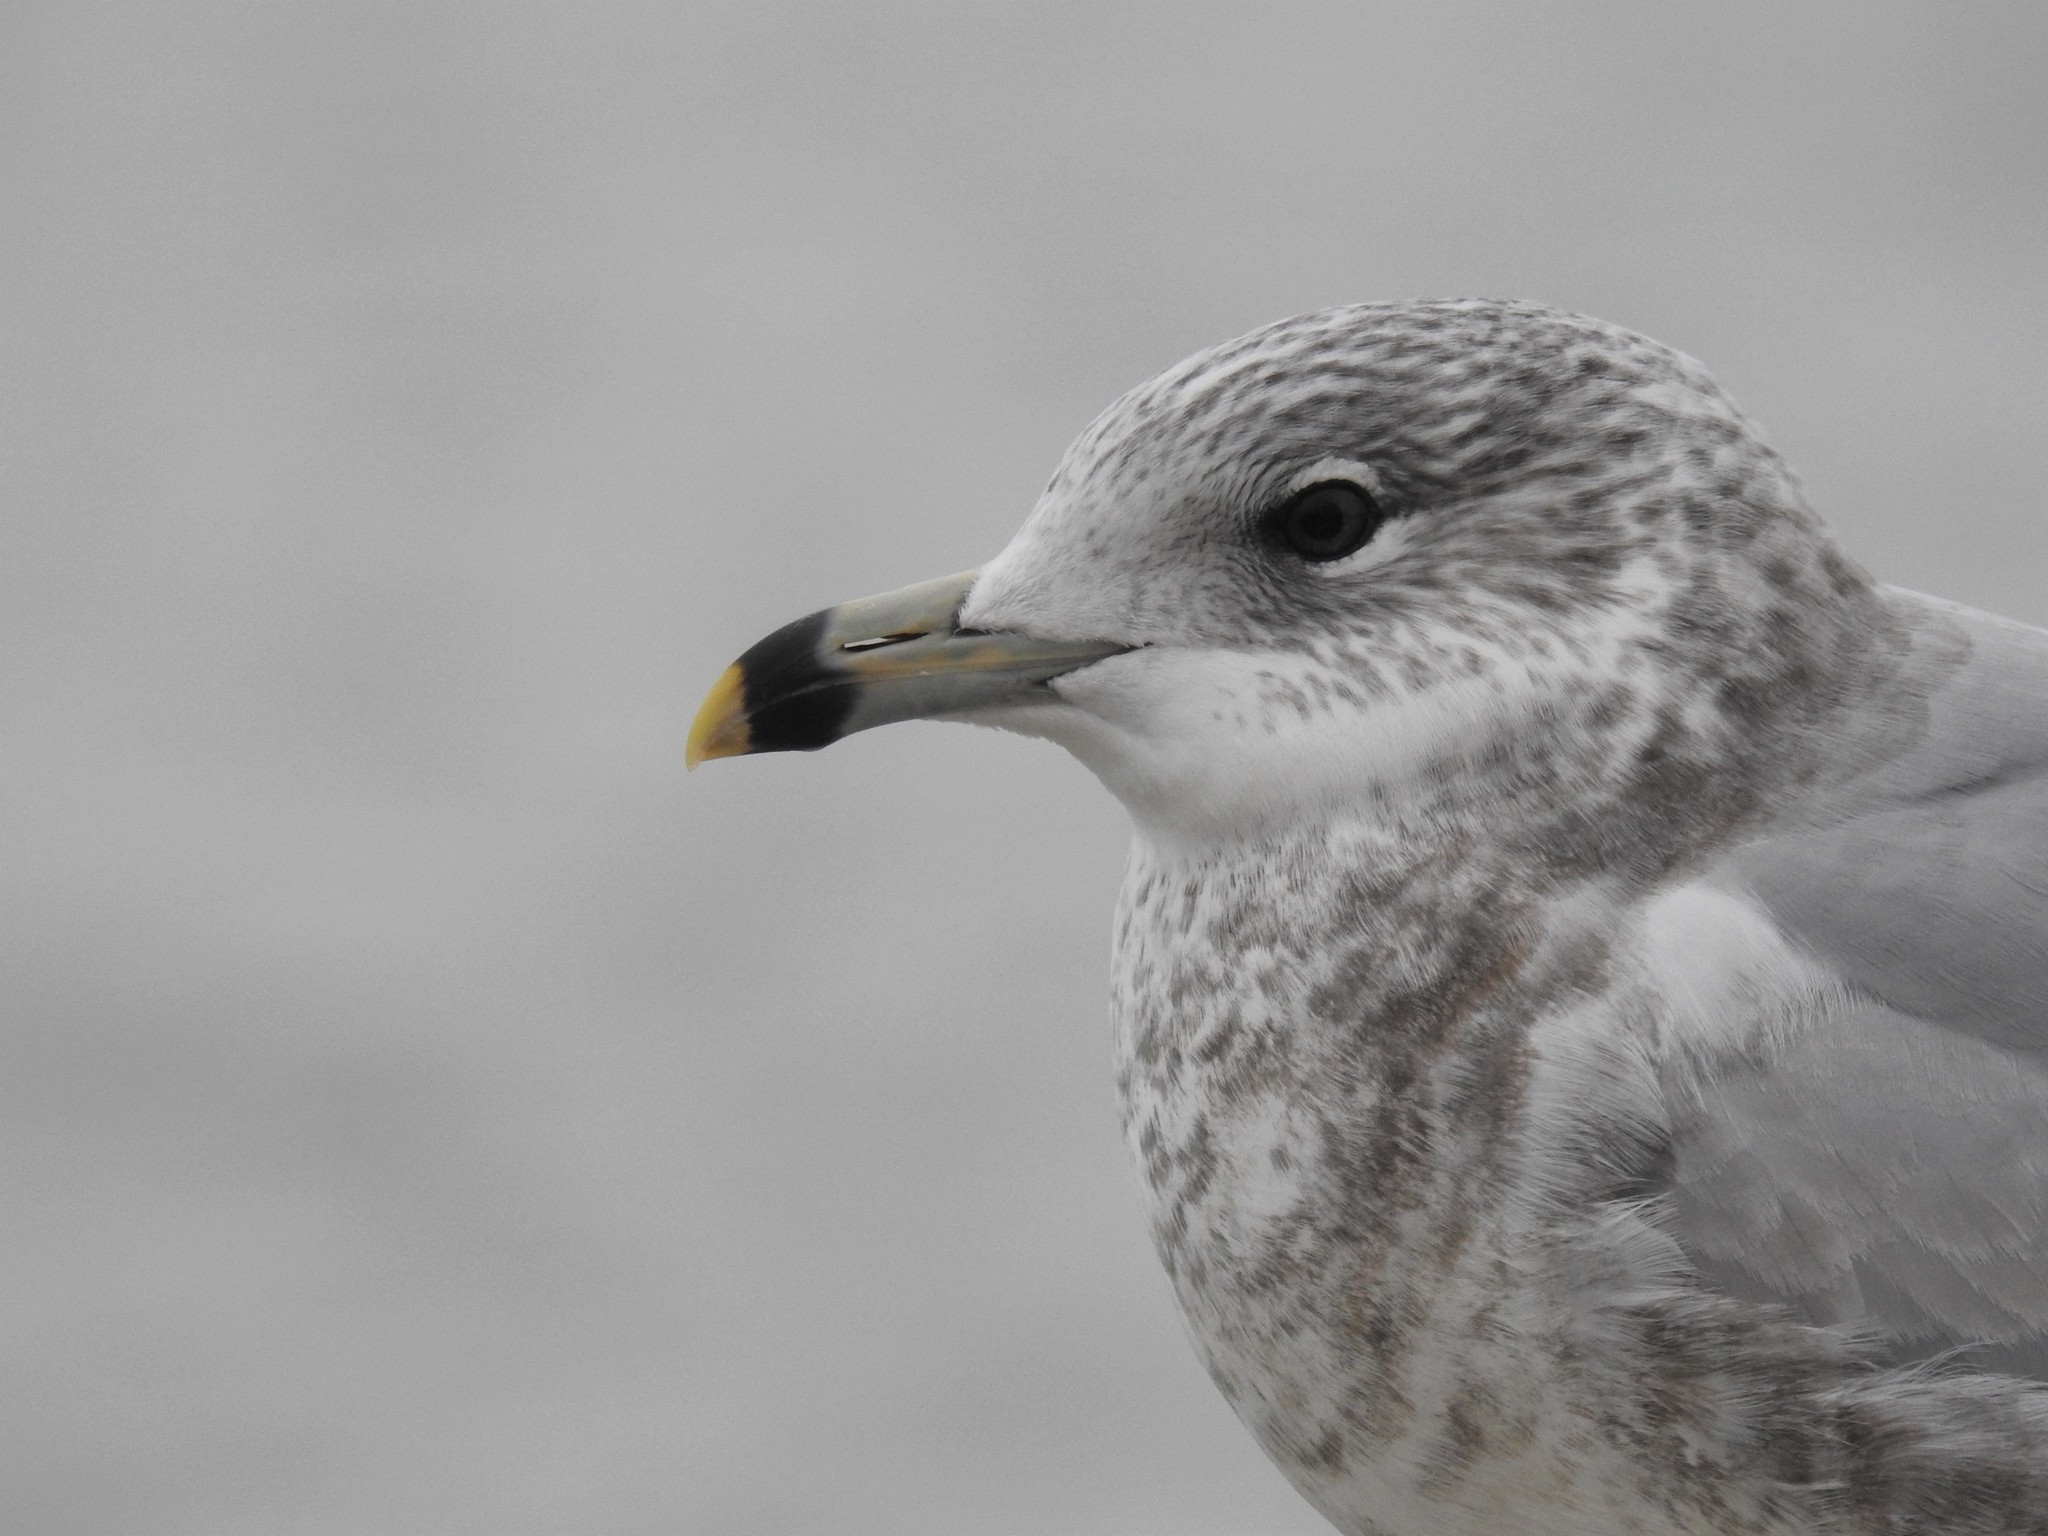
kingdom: Animalia
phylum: Chordata
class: Aves
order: Charadriiformes
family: Laridae
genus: Larus
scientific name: Larus delawarensis
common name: Ring-billed gull
